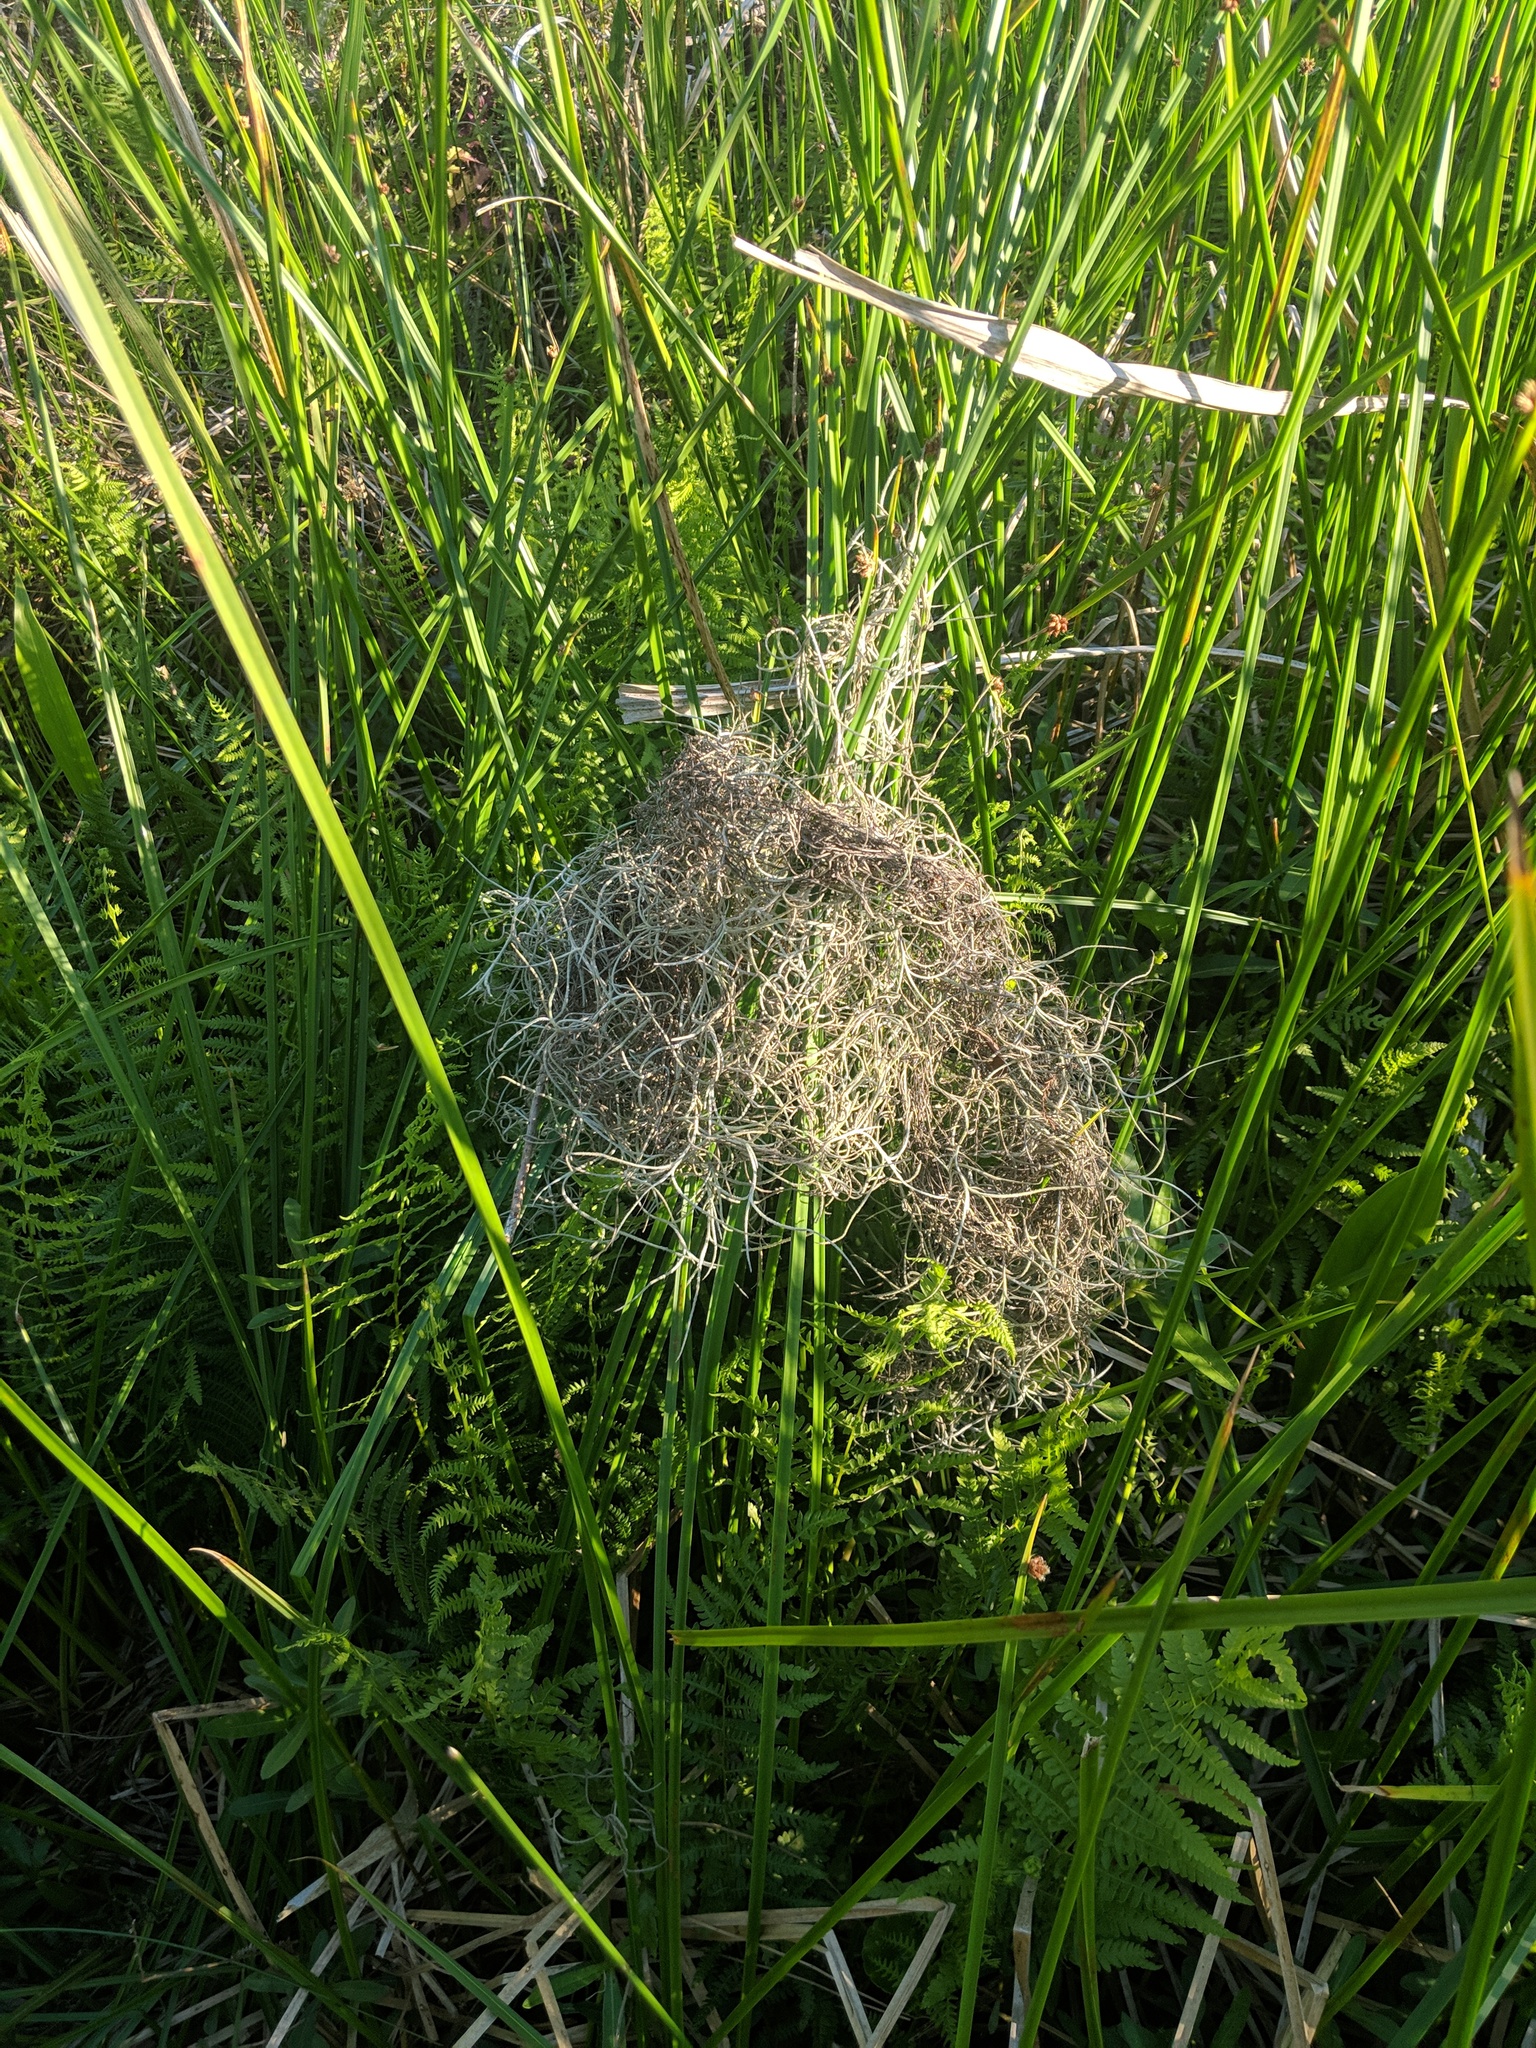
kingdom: Plantae
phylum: Tracheophyta
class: Liliopsida
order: Poales
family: Bromeliaceae
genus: Tillandsia
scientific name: Tillandsia usneoides
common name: Spanish moss
